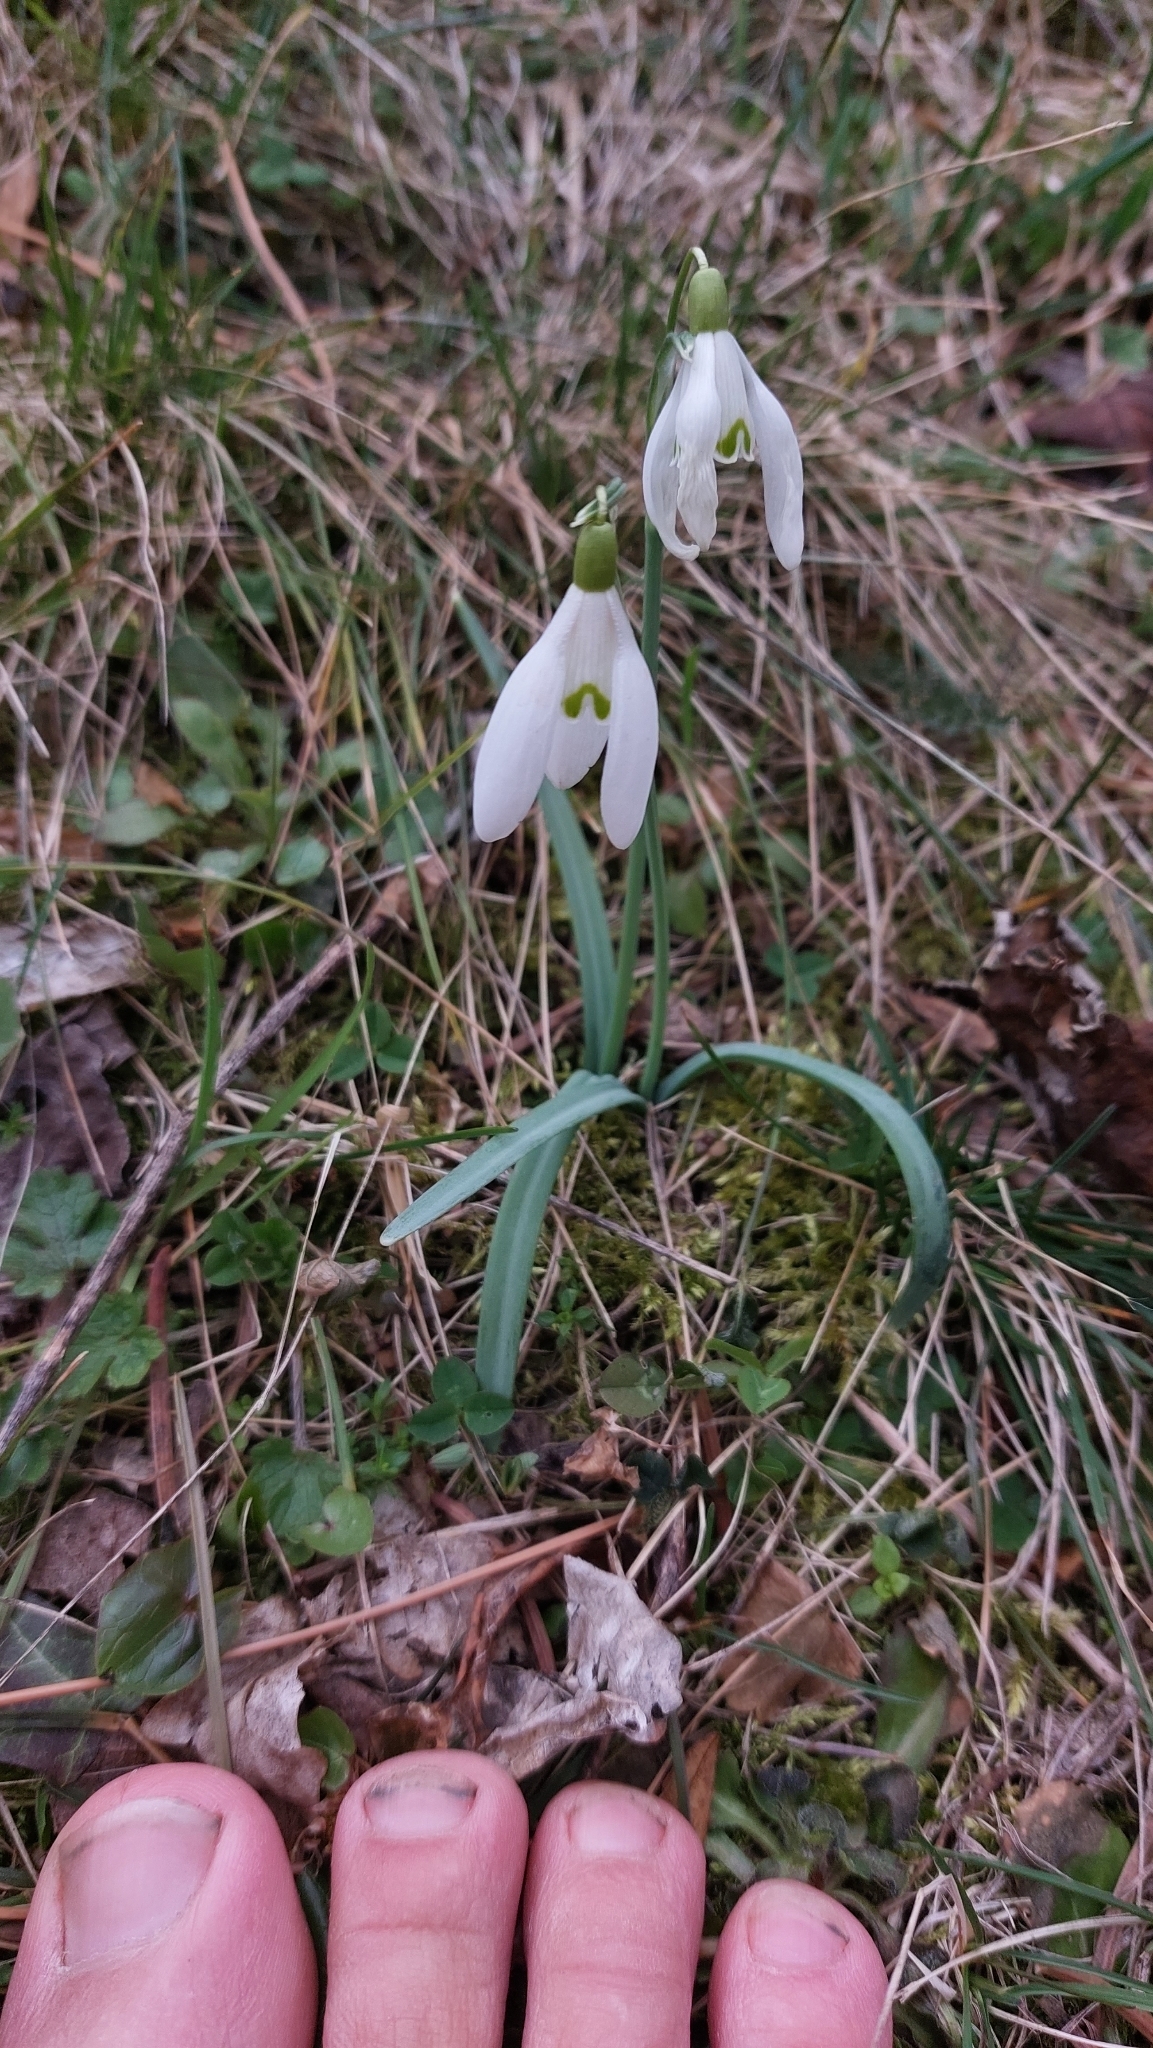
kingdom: Plantae
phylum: Tracheophyta
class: Liliopsida
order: Asparagales
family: Amaryllidaceae
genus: Galanthus
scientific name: Galanthus nivalis
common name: Snowdrop
